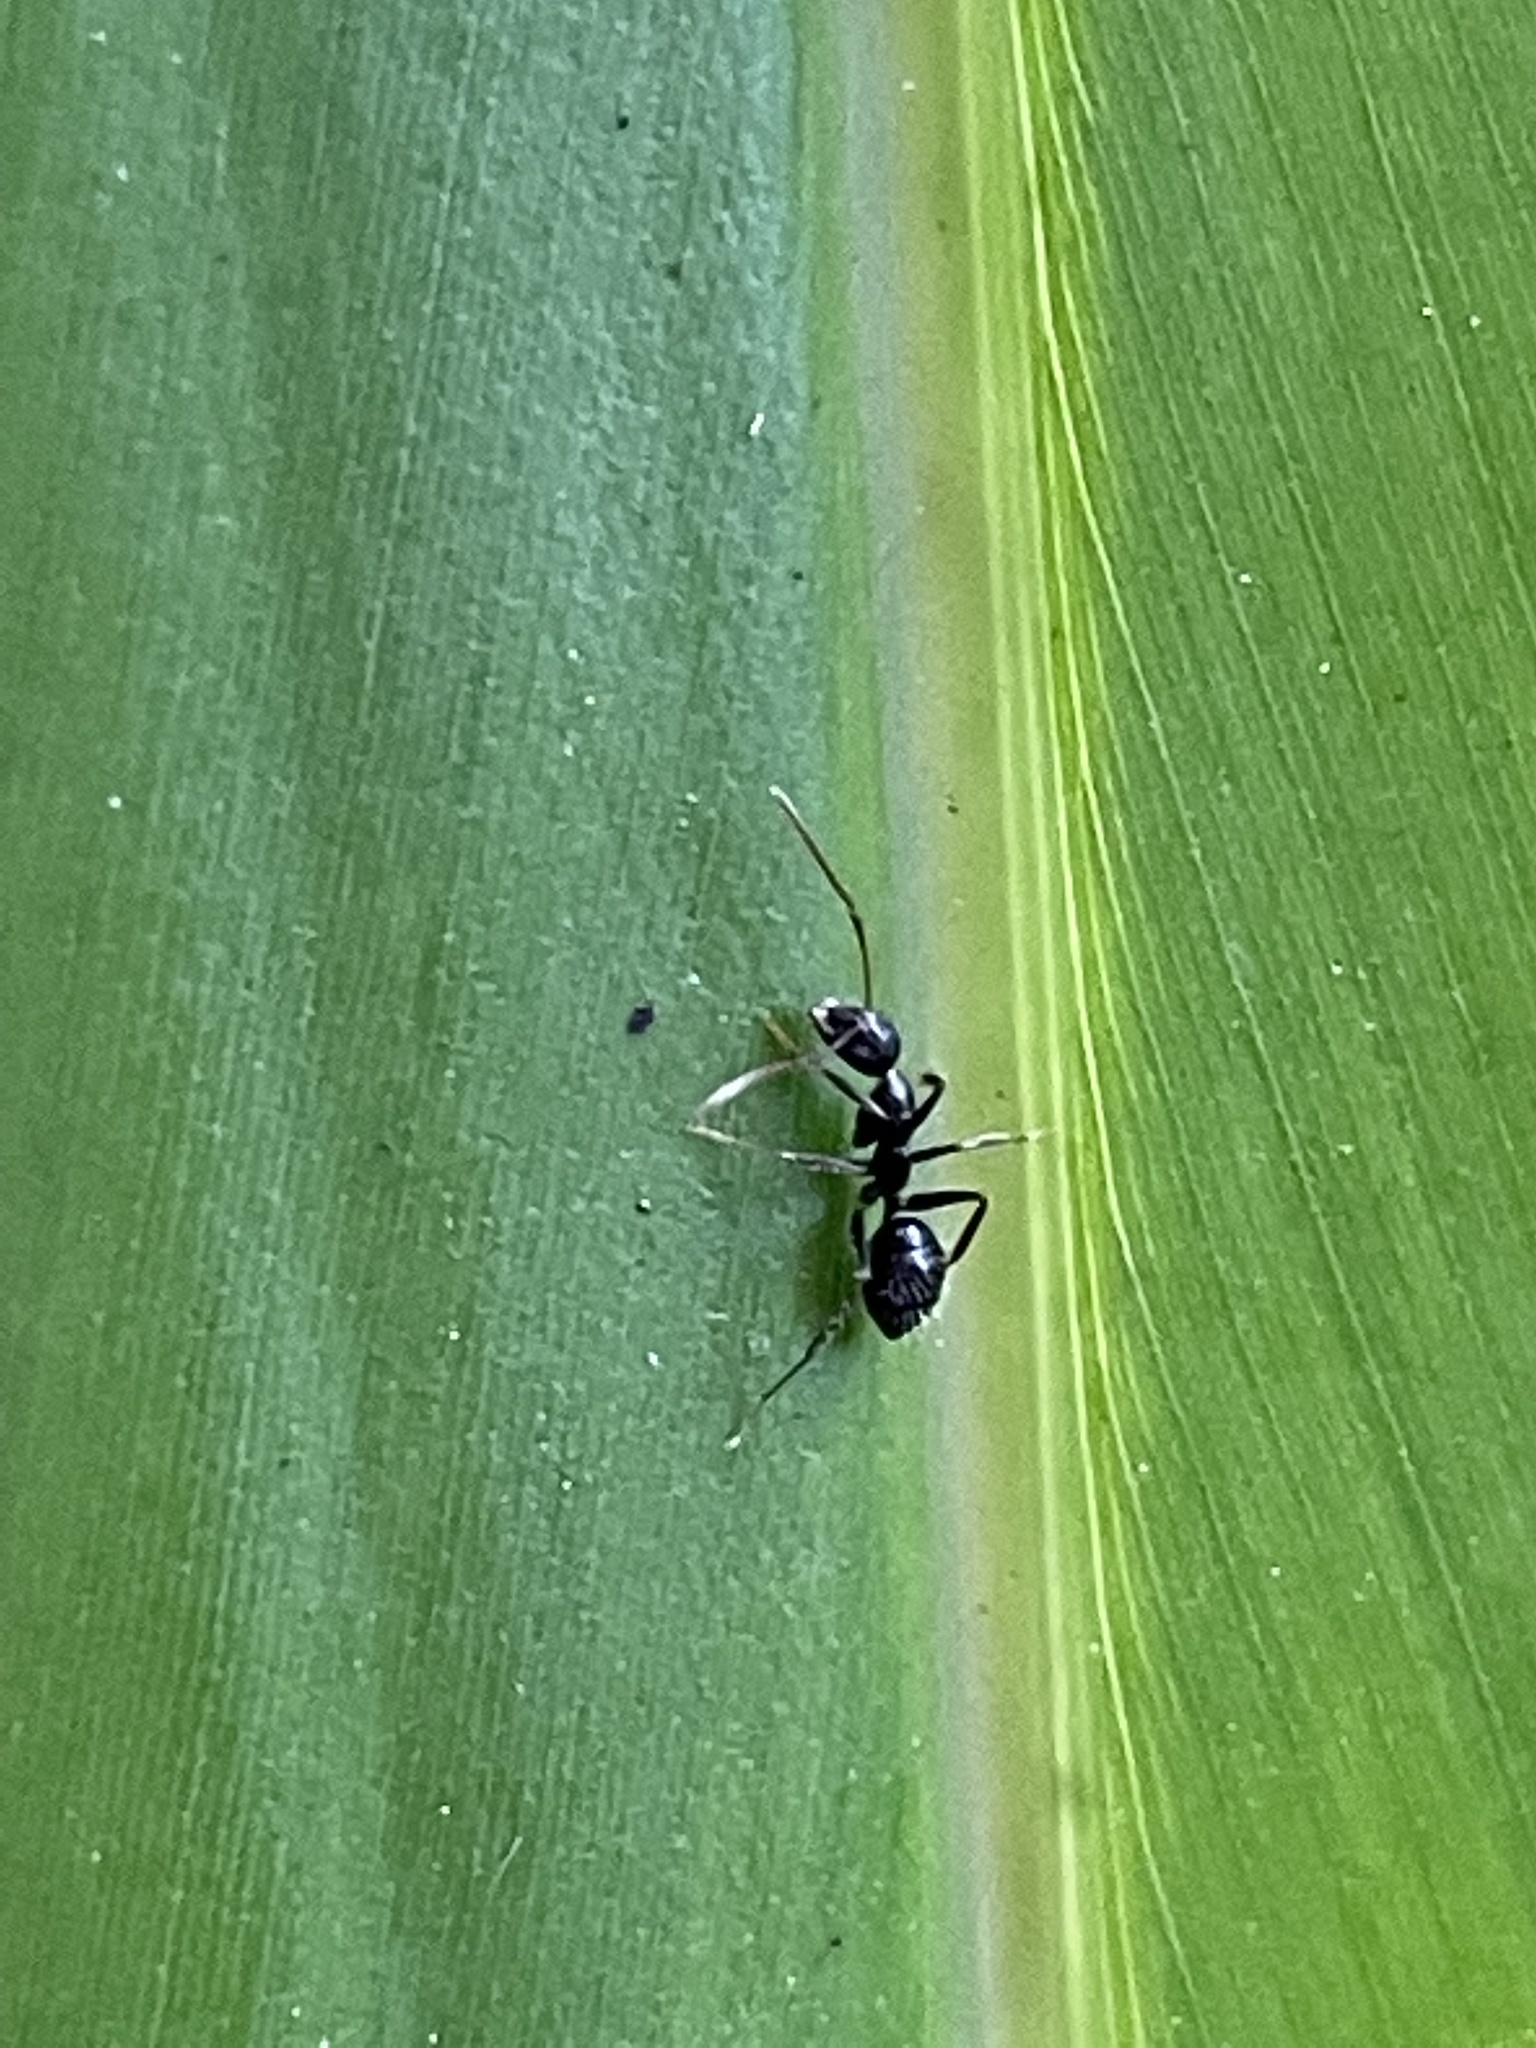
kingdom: Animalia
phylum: Arthropoda
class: Insecta
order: Hymenoptera
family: Formicidae
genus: Camponotus
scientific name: Camponotus sexguttatus
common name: Neotropical carpenter ant
